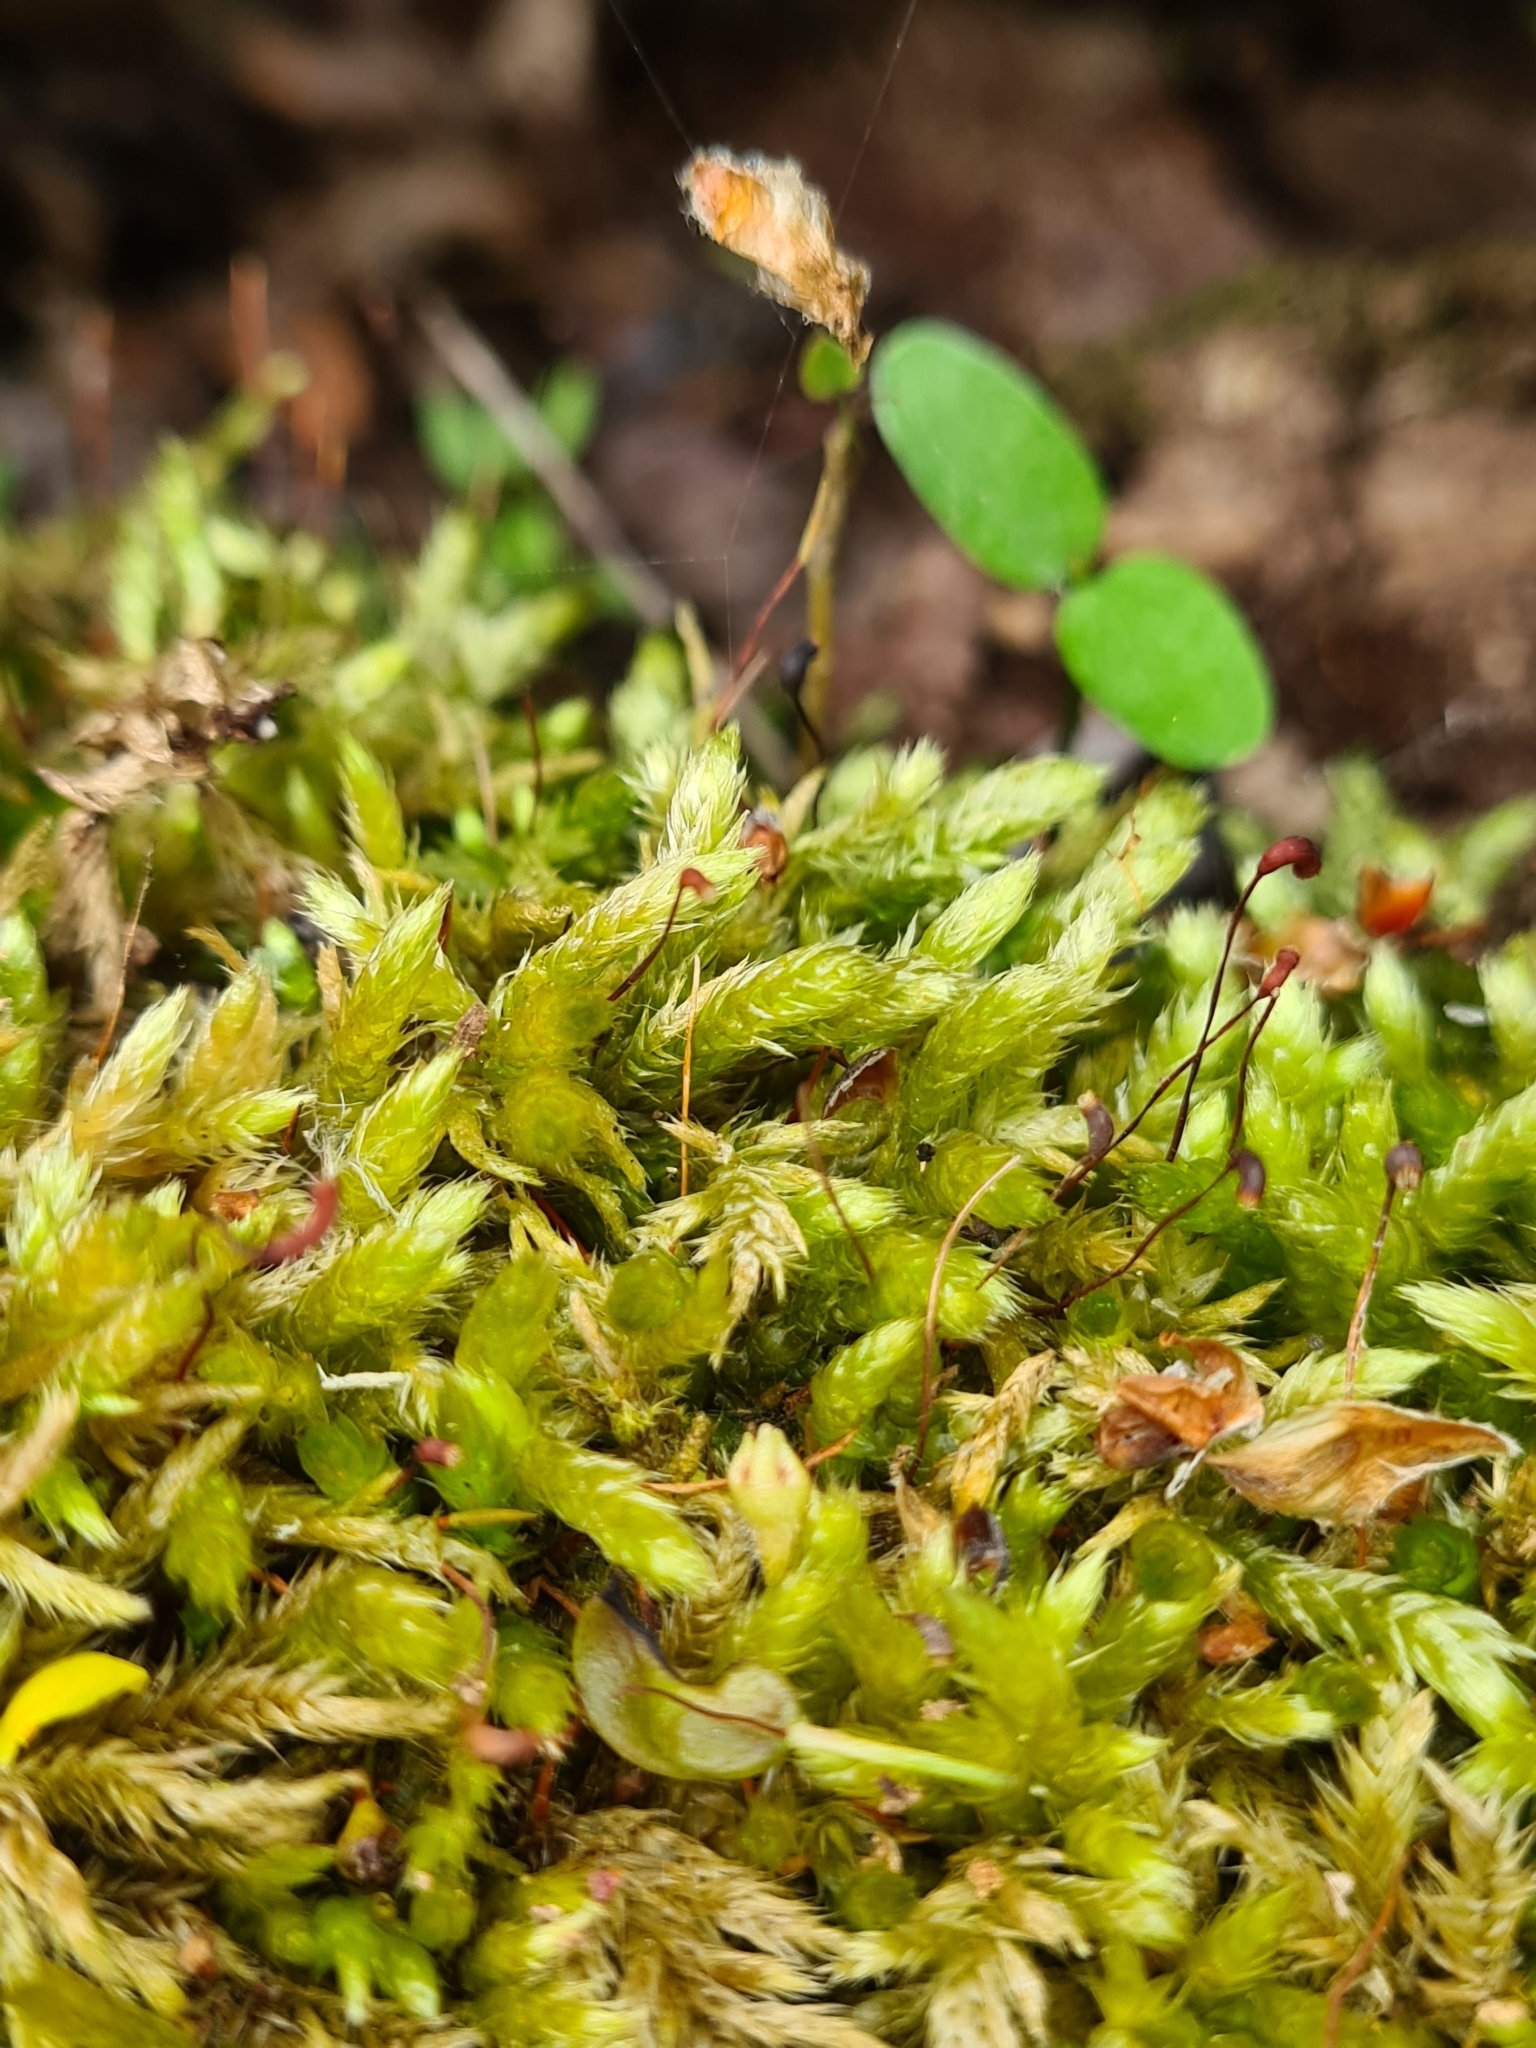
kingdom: Plantae
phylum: Bryophyta
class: Bryopsida
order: Hypnales
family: Brachytheciaceae
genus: Brachythecium
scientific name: Brachythecium rutabulum
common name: Rough-stalked feather-moss
